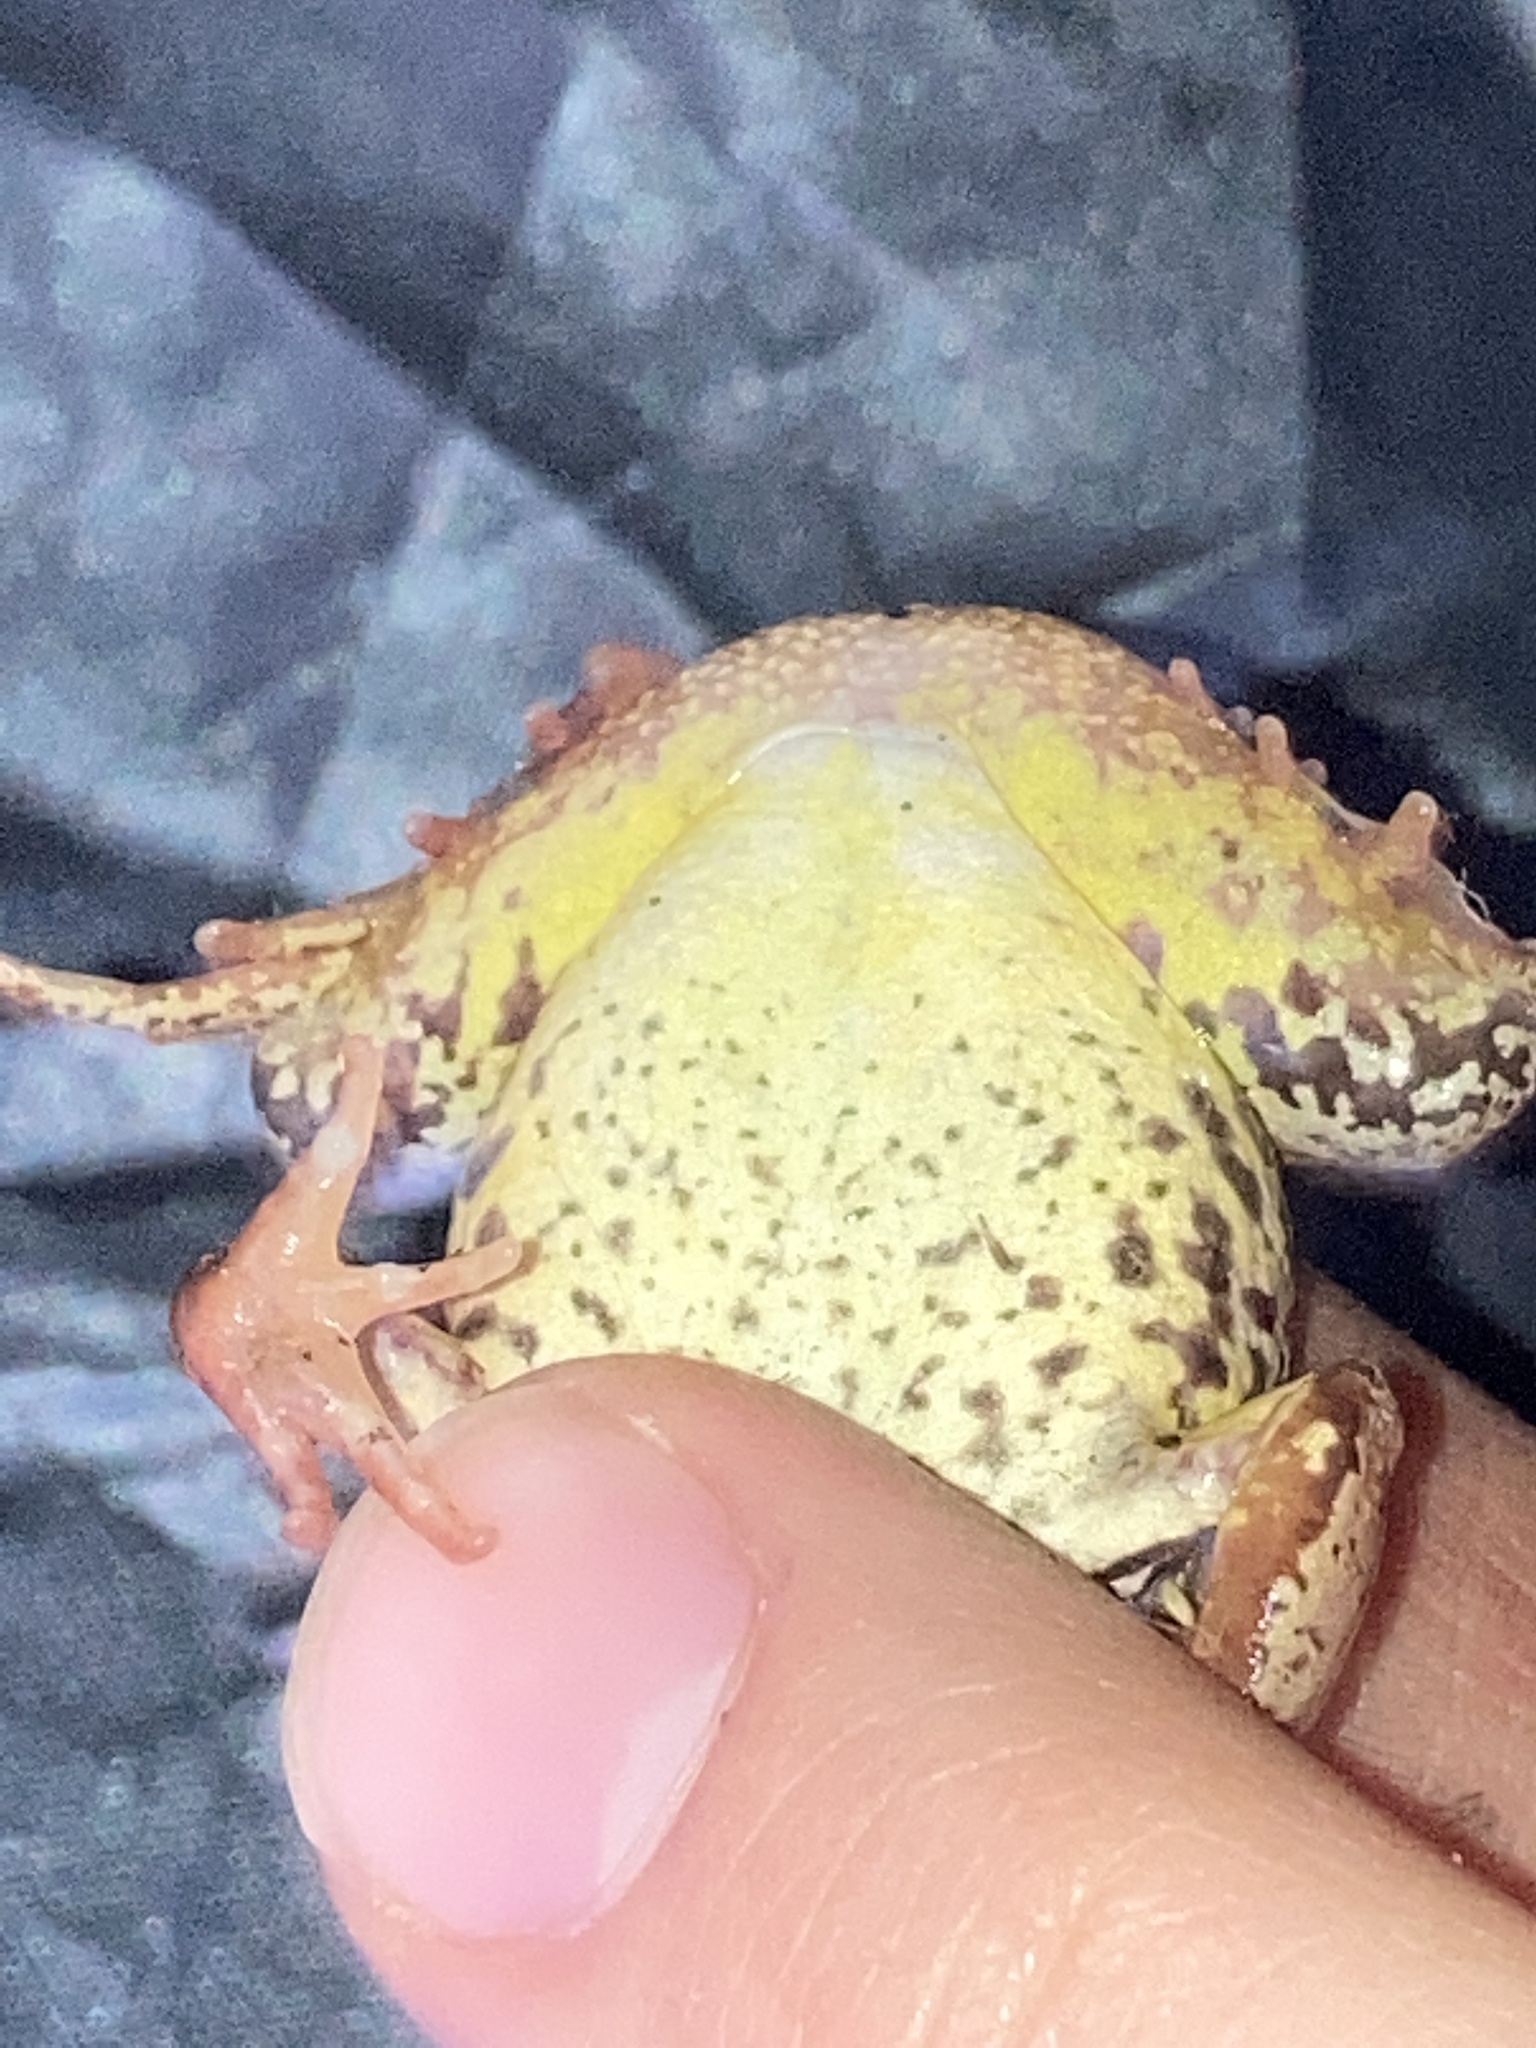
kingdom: Animalia
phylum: Chordata
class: Amphibia
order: Anura
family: Ranidae
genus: Rana
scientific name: Rana temporaria
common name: Common frog
